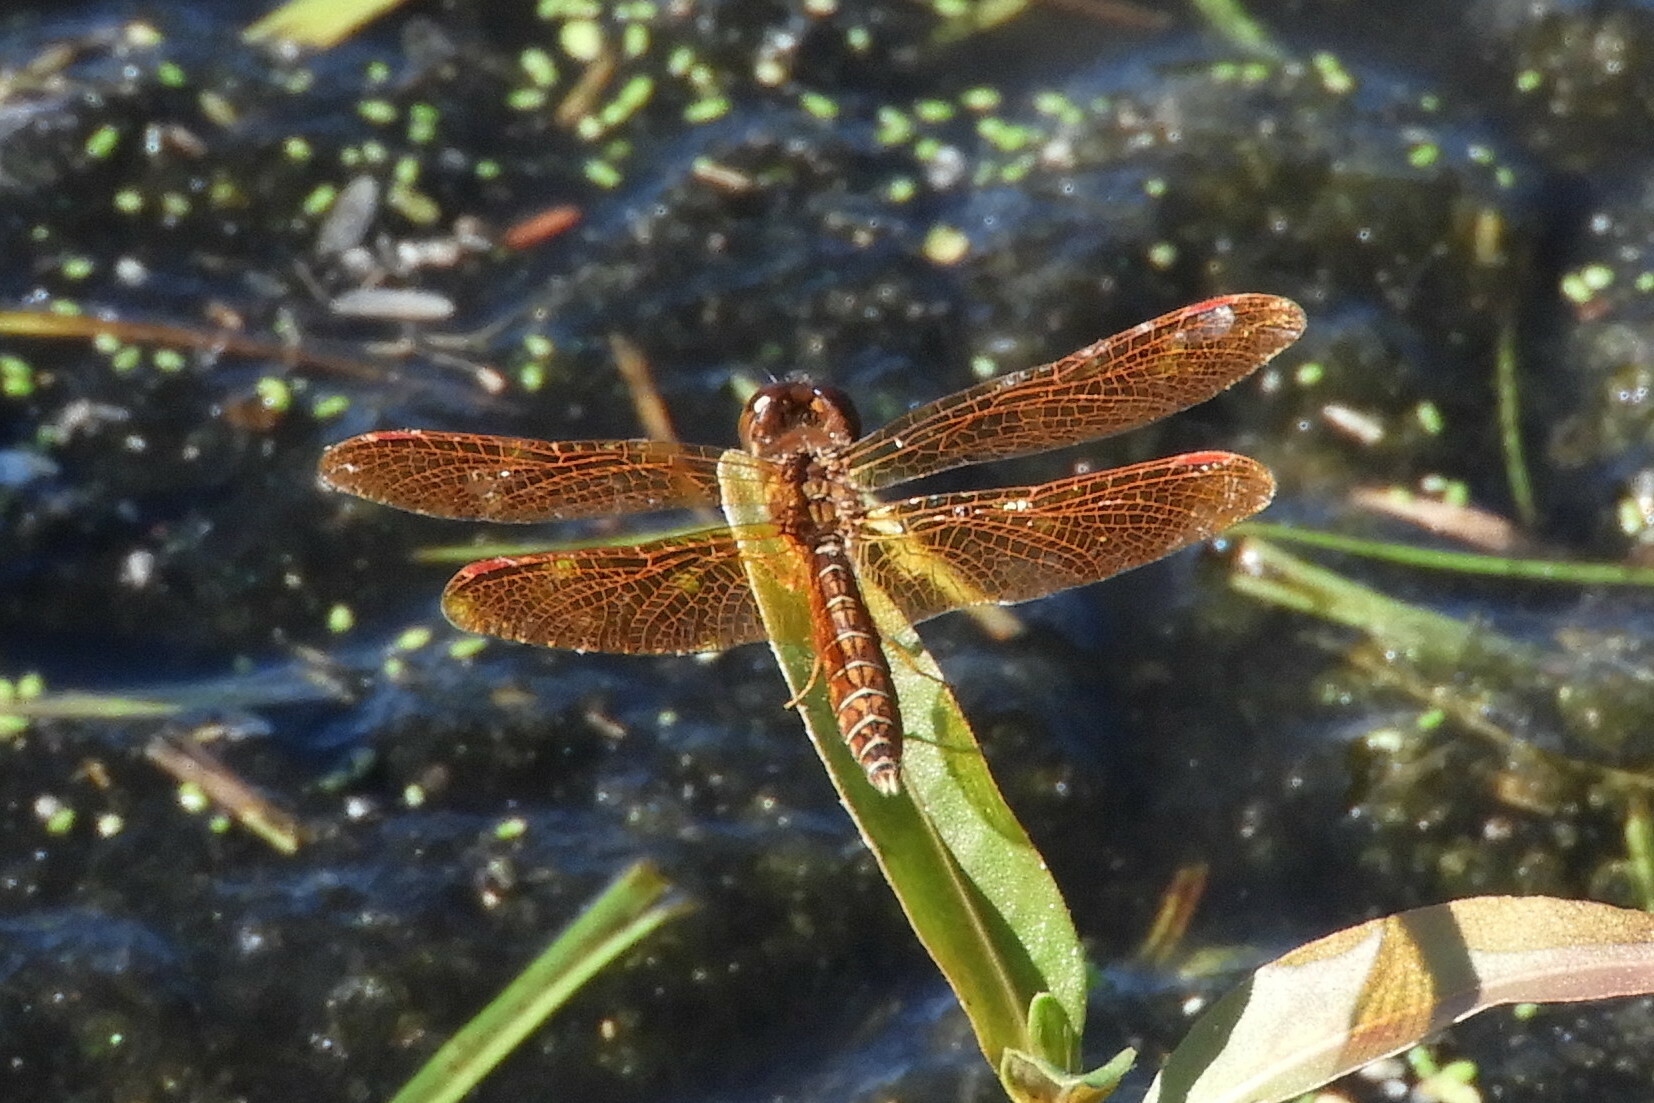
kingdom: Animalia
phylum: Arthropoda
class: Insecta
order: Odonata
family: Libellulidae
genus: Perithemis
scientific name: Perithemis tenera
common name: Eastern amberwing
